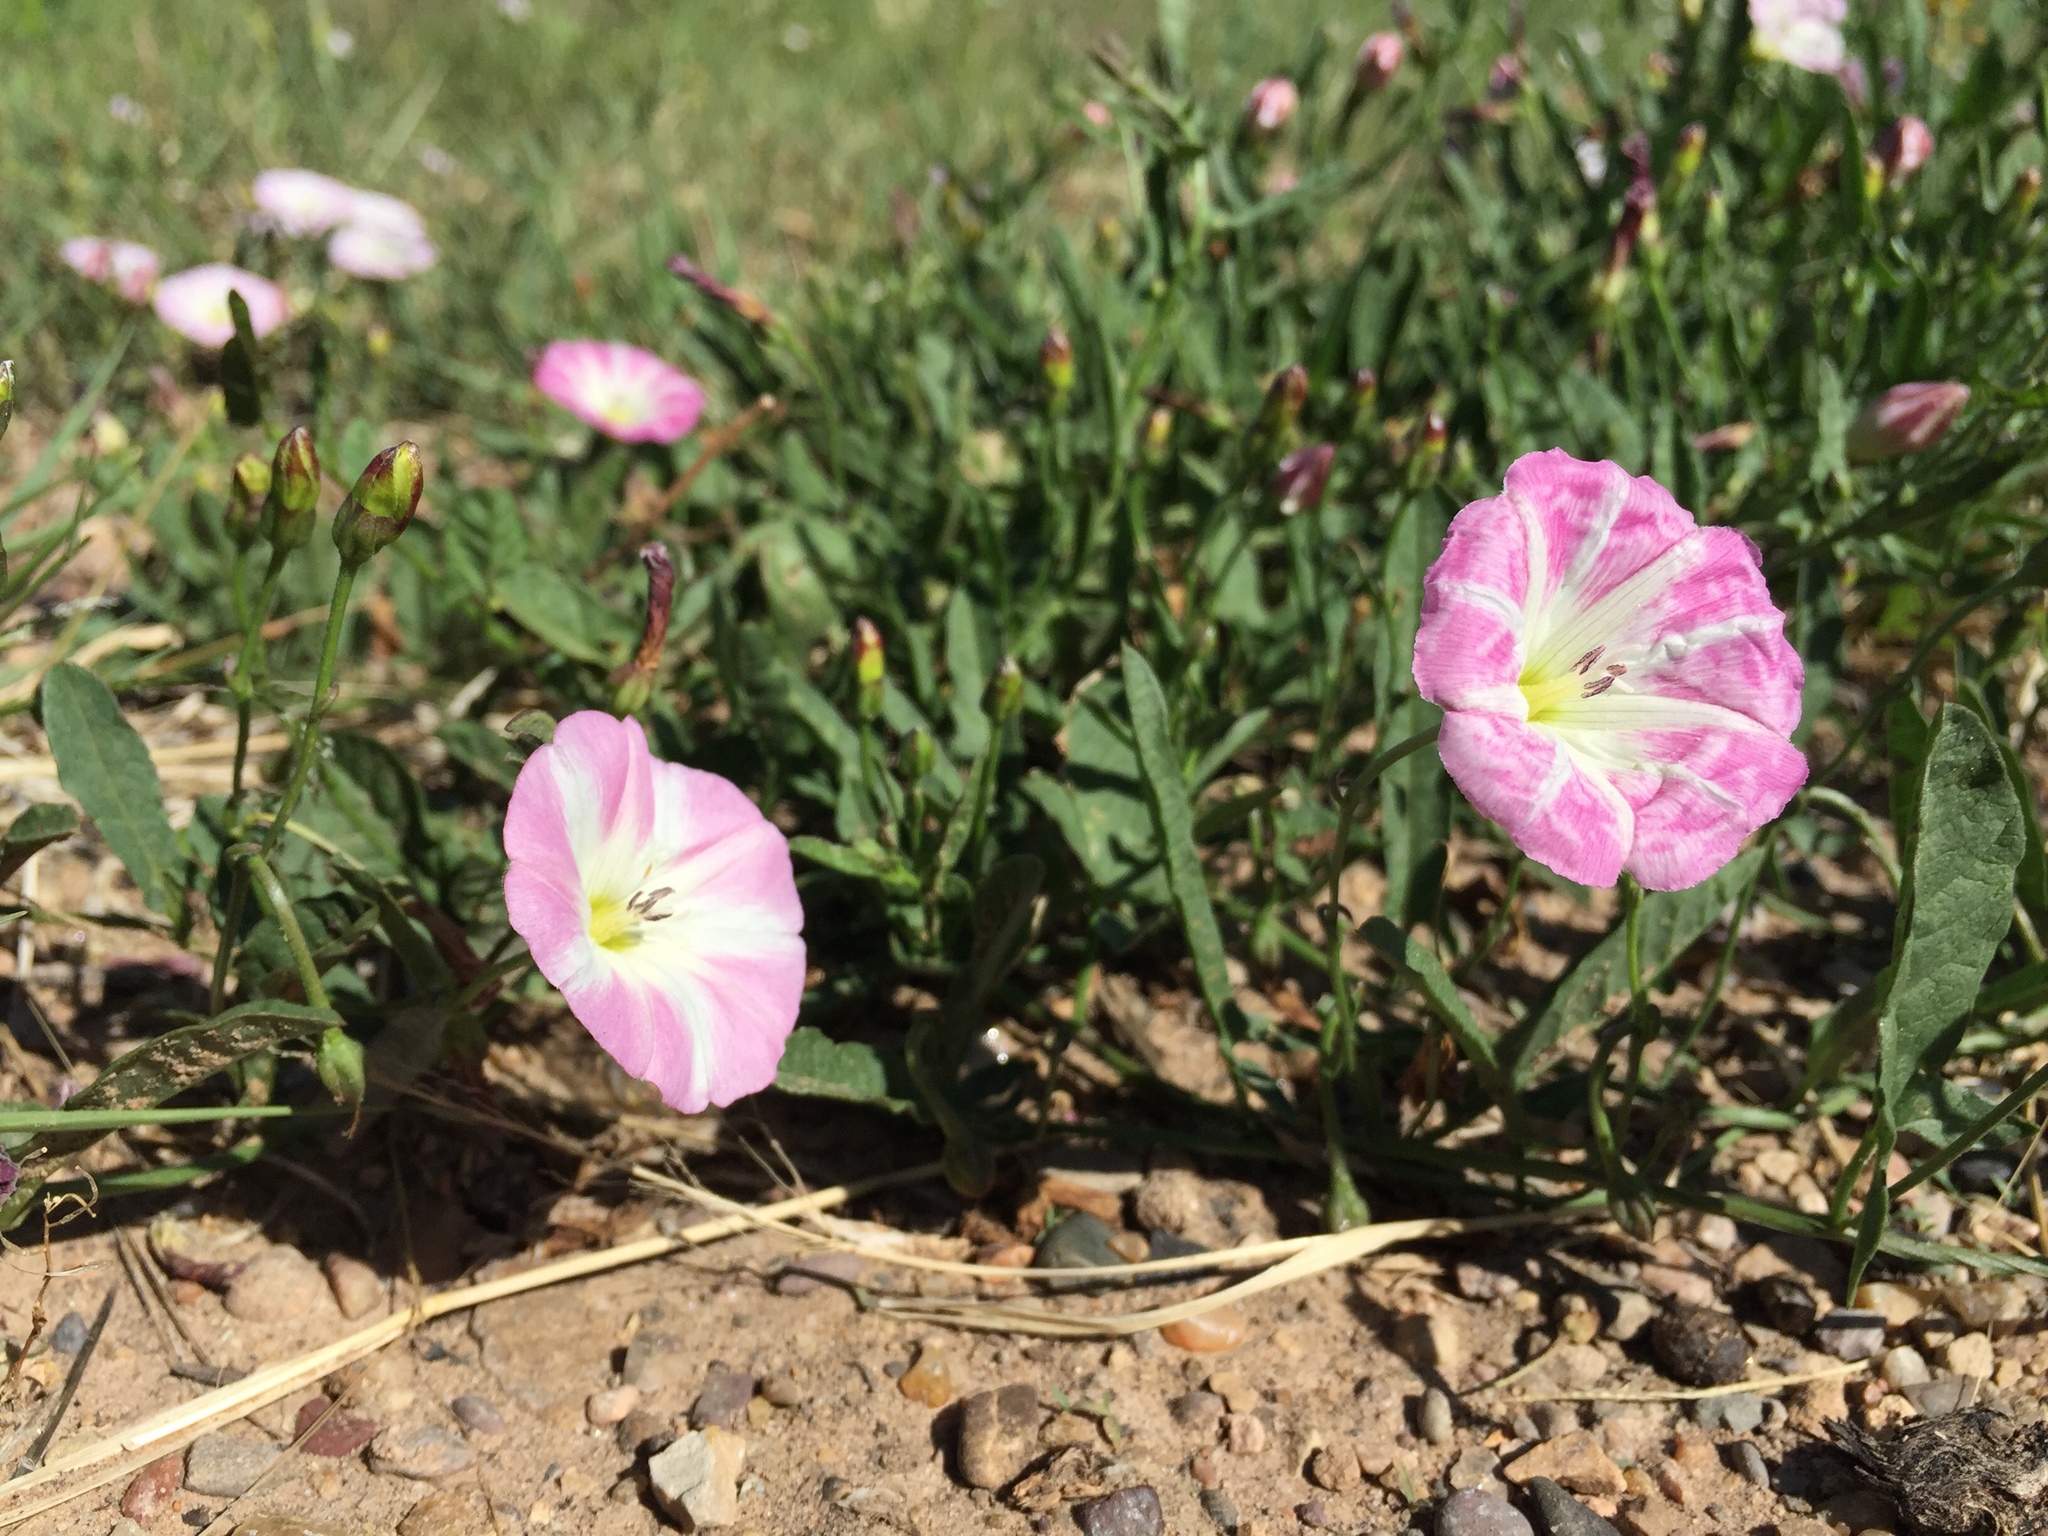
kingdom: Plantae
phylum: Tracheophyta
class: Magnoliopsida
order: Solanales
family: Convolvulaceae
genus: Convolvulus
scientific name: Convolvulus arvensis
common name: Field bindweed
